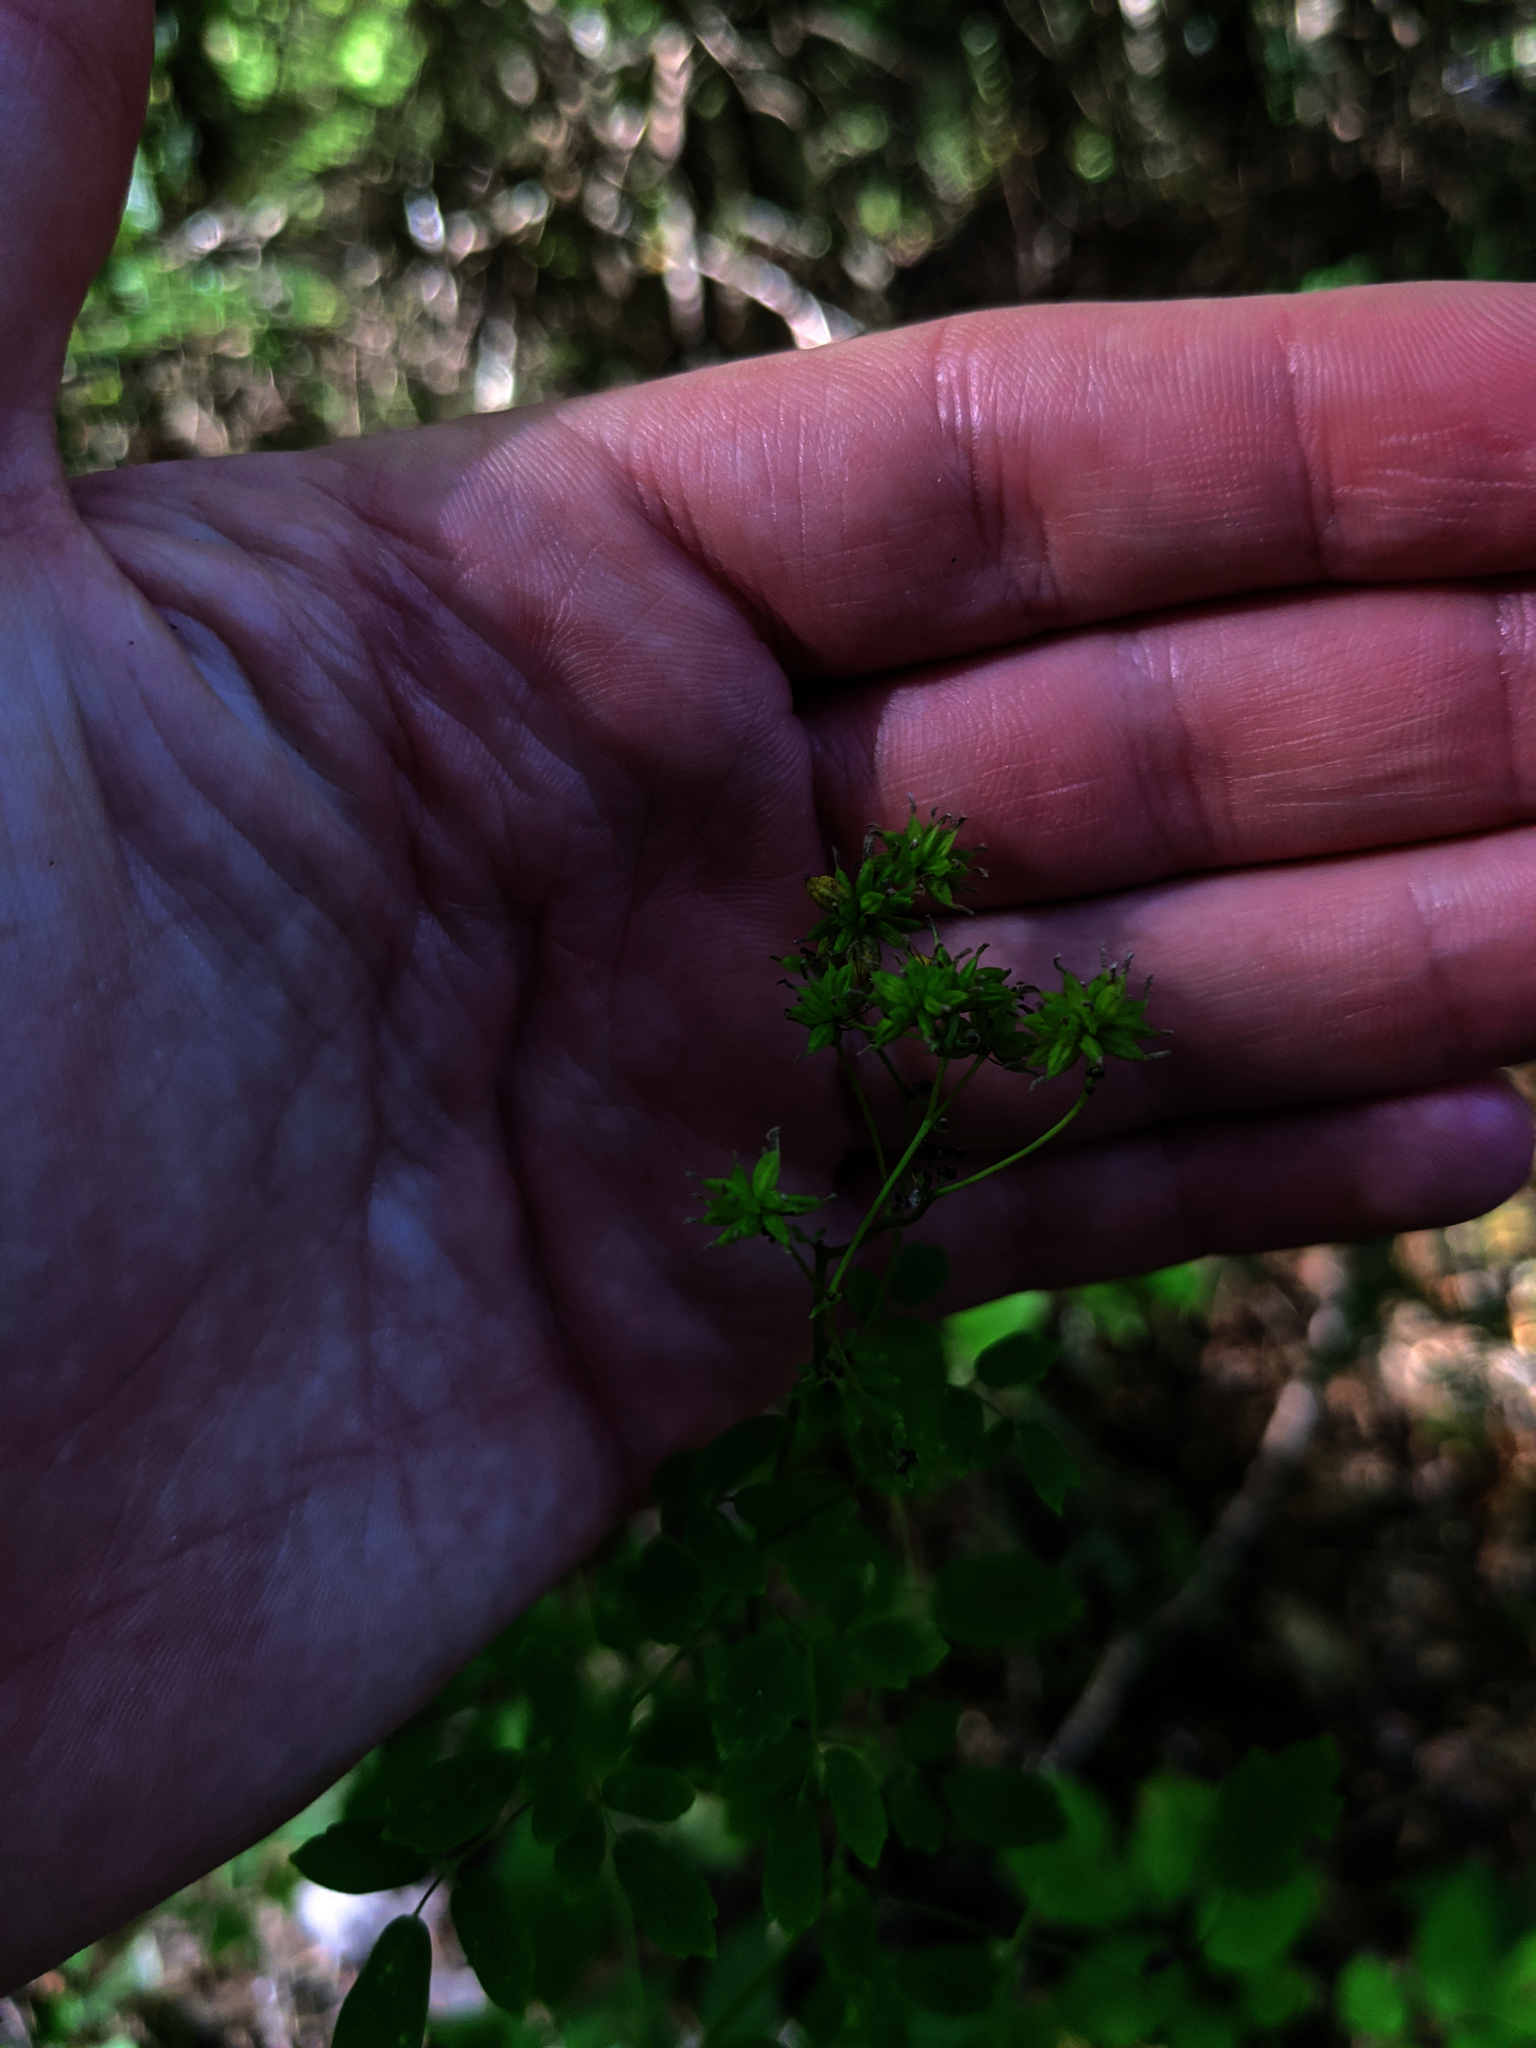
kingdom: Plantae
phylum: Tracheophyta
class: Magnoliopsida
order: Ranunculales
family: Ranunculaceae
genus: Thalictrum
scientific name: Thalictrum pubescens
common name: King-of-the-meadow
